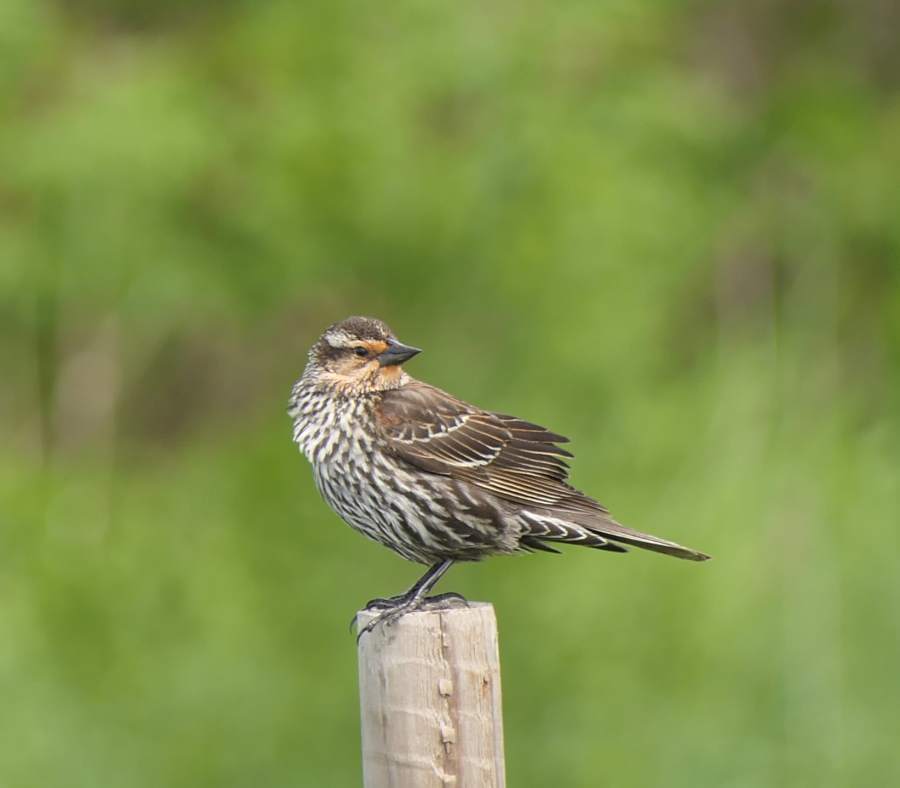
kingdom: Animalia
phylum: Chordata
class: Aves
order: Passeriformes
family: Icteridae
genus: Agelaius
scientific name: Agelaius phoeniceus
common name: Red-winged blackbird
